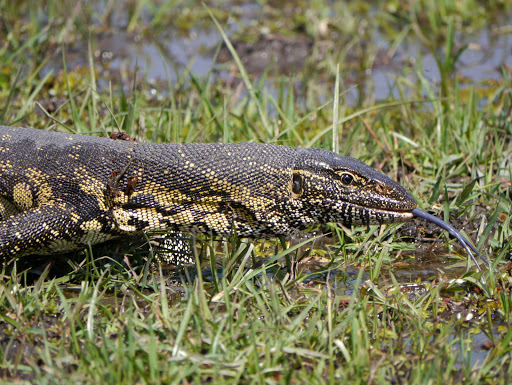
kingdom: Animalia
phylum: Chordata
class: Squamata
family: Varanidae
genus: Varanus
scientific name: Varanus niloticus
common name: Nile monitor
